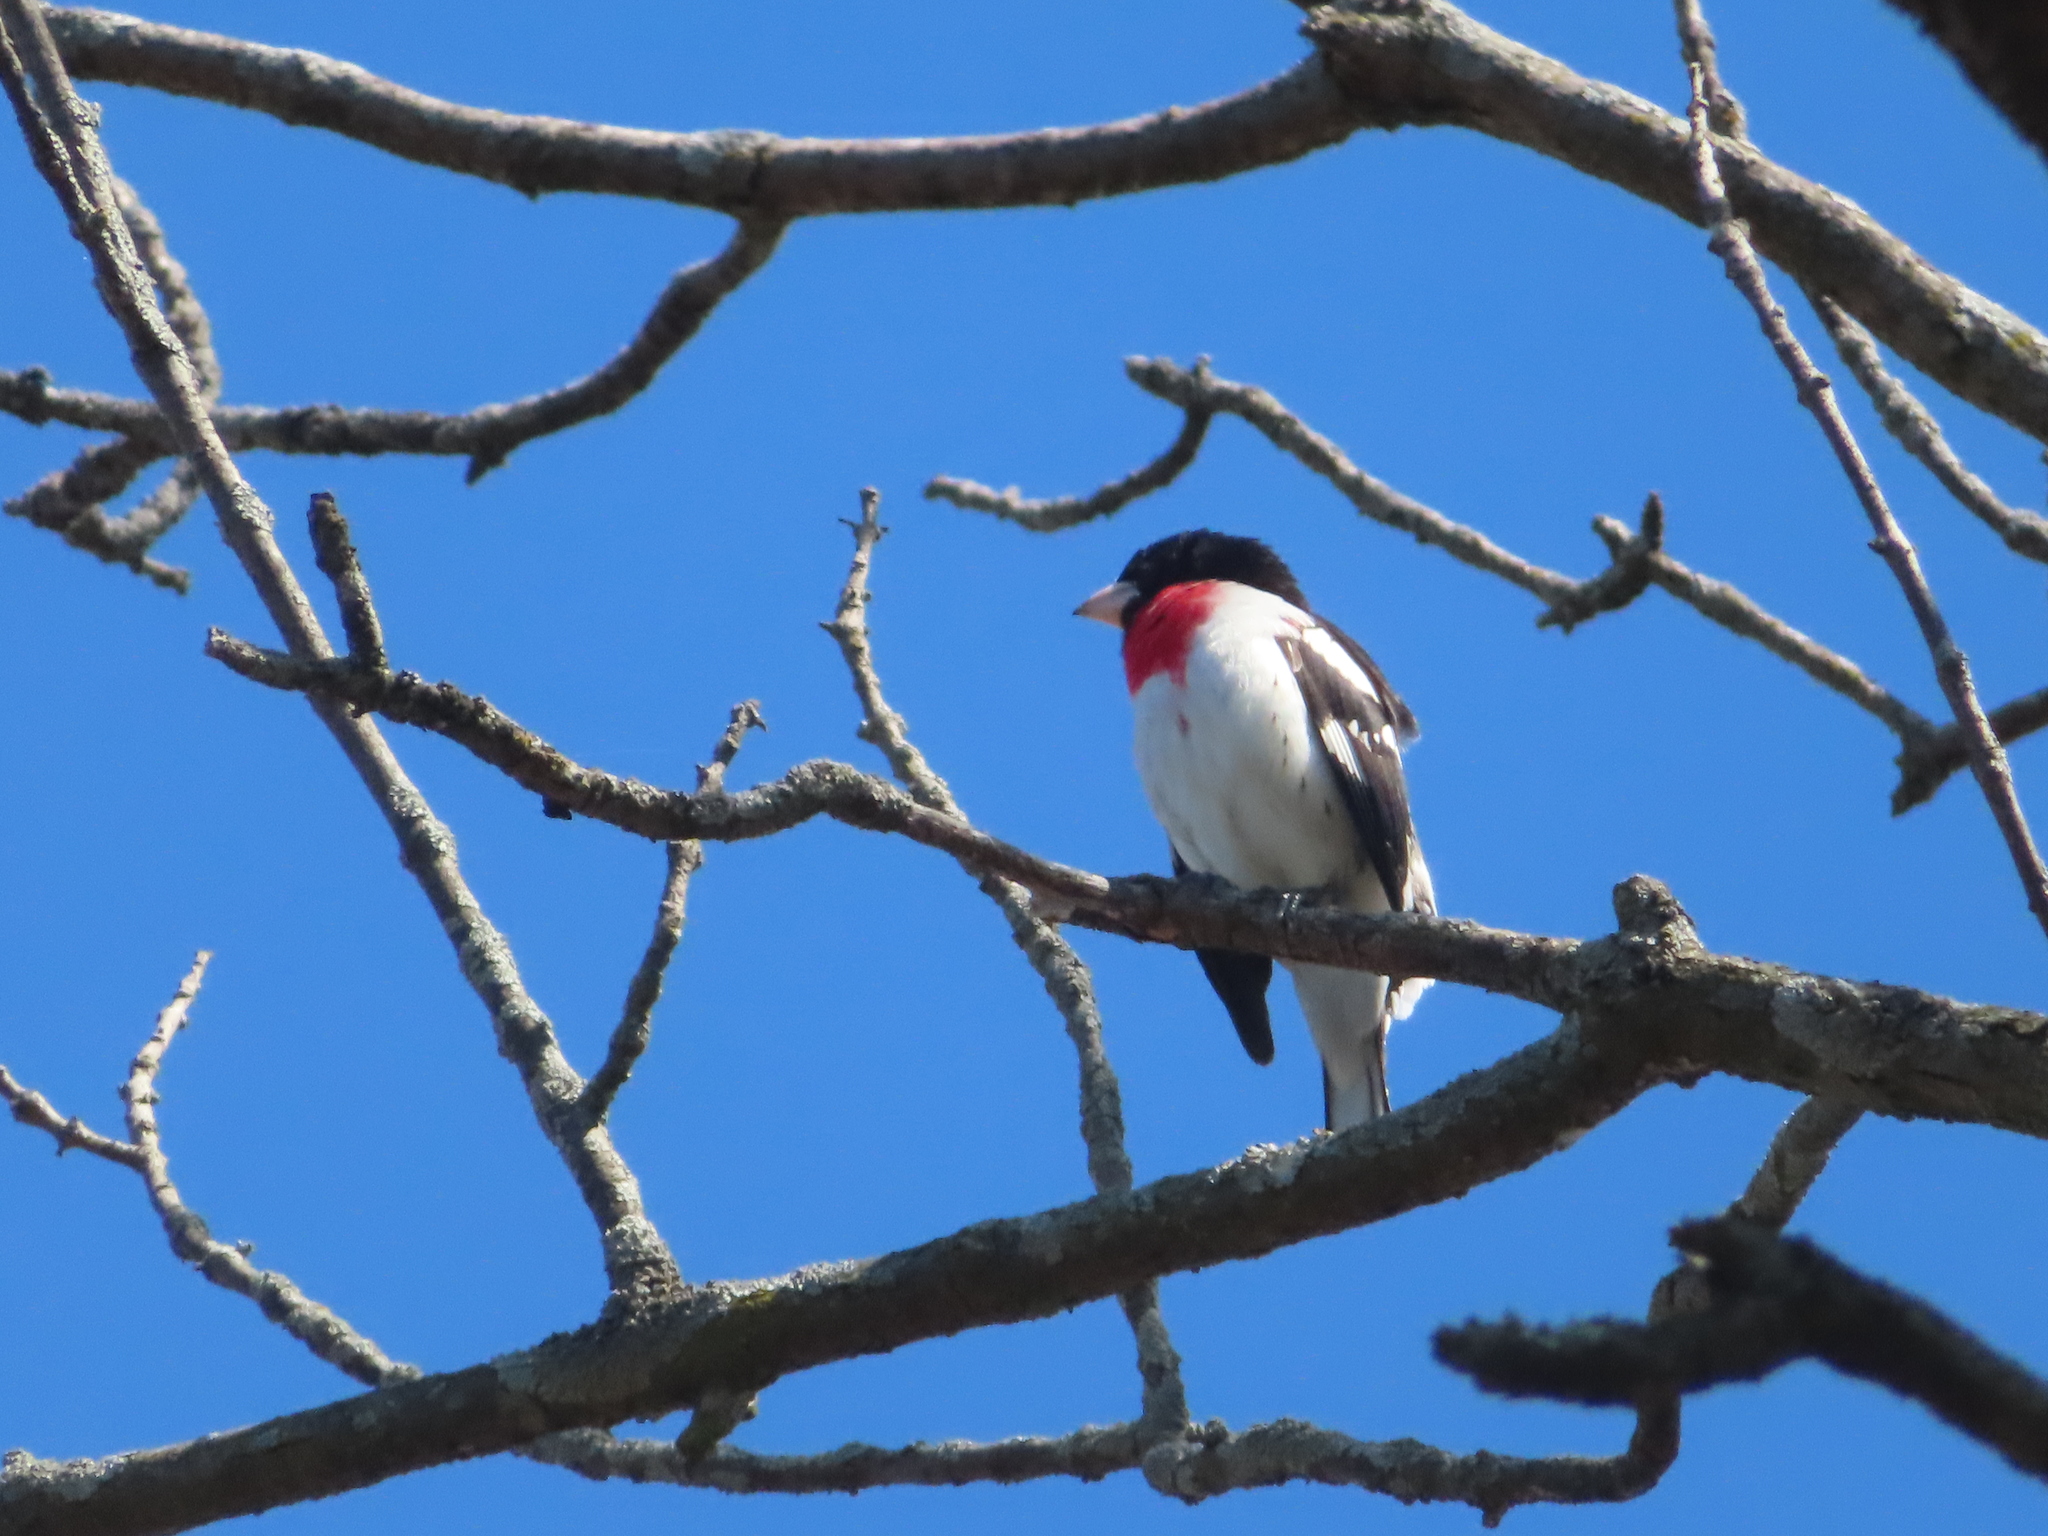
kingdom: Animalia
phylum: Chordata
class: Aves
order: Passeriformes
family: Cardinalidae
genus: Pheucticus
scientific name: Pheucticus ludovicianus
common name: Rose-breasted grosbeak
